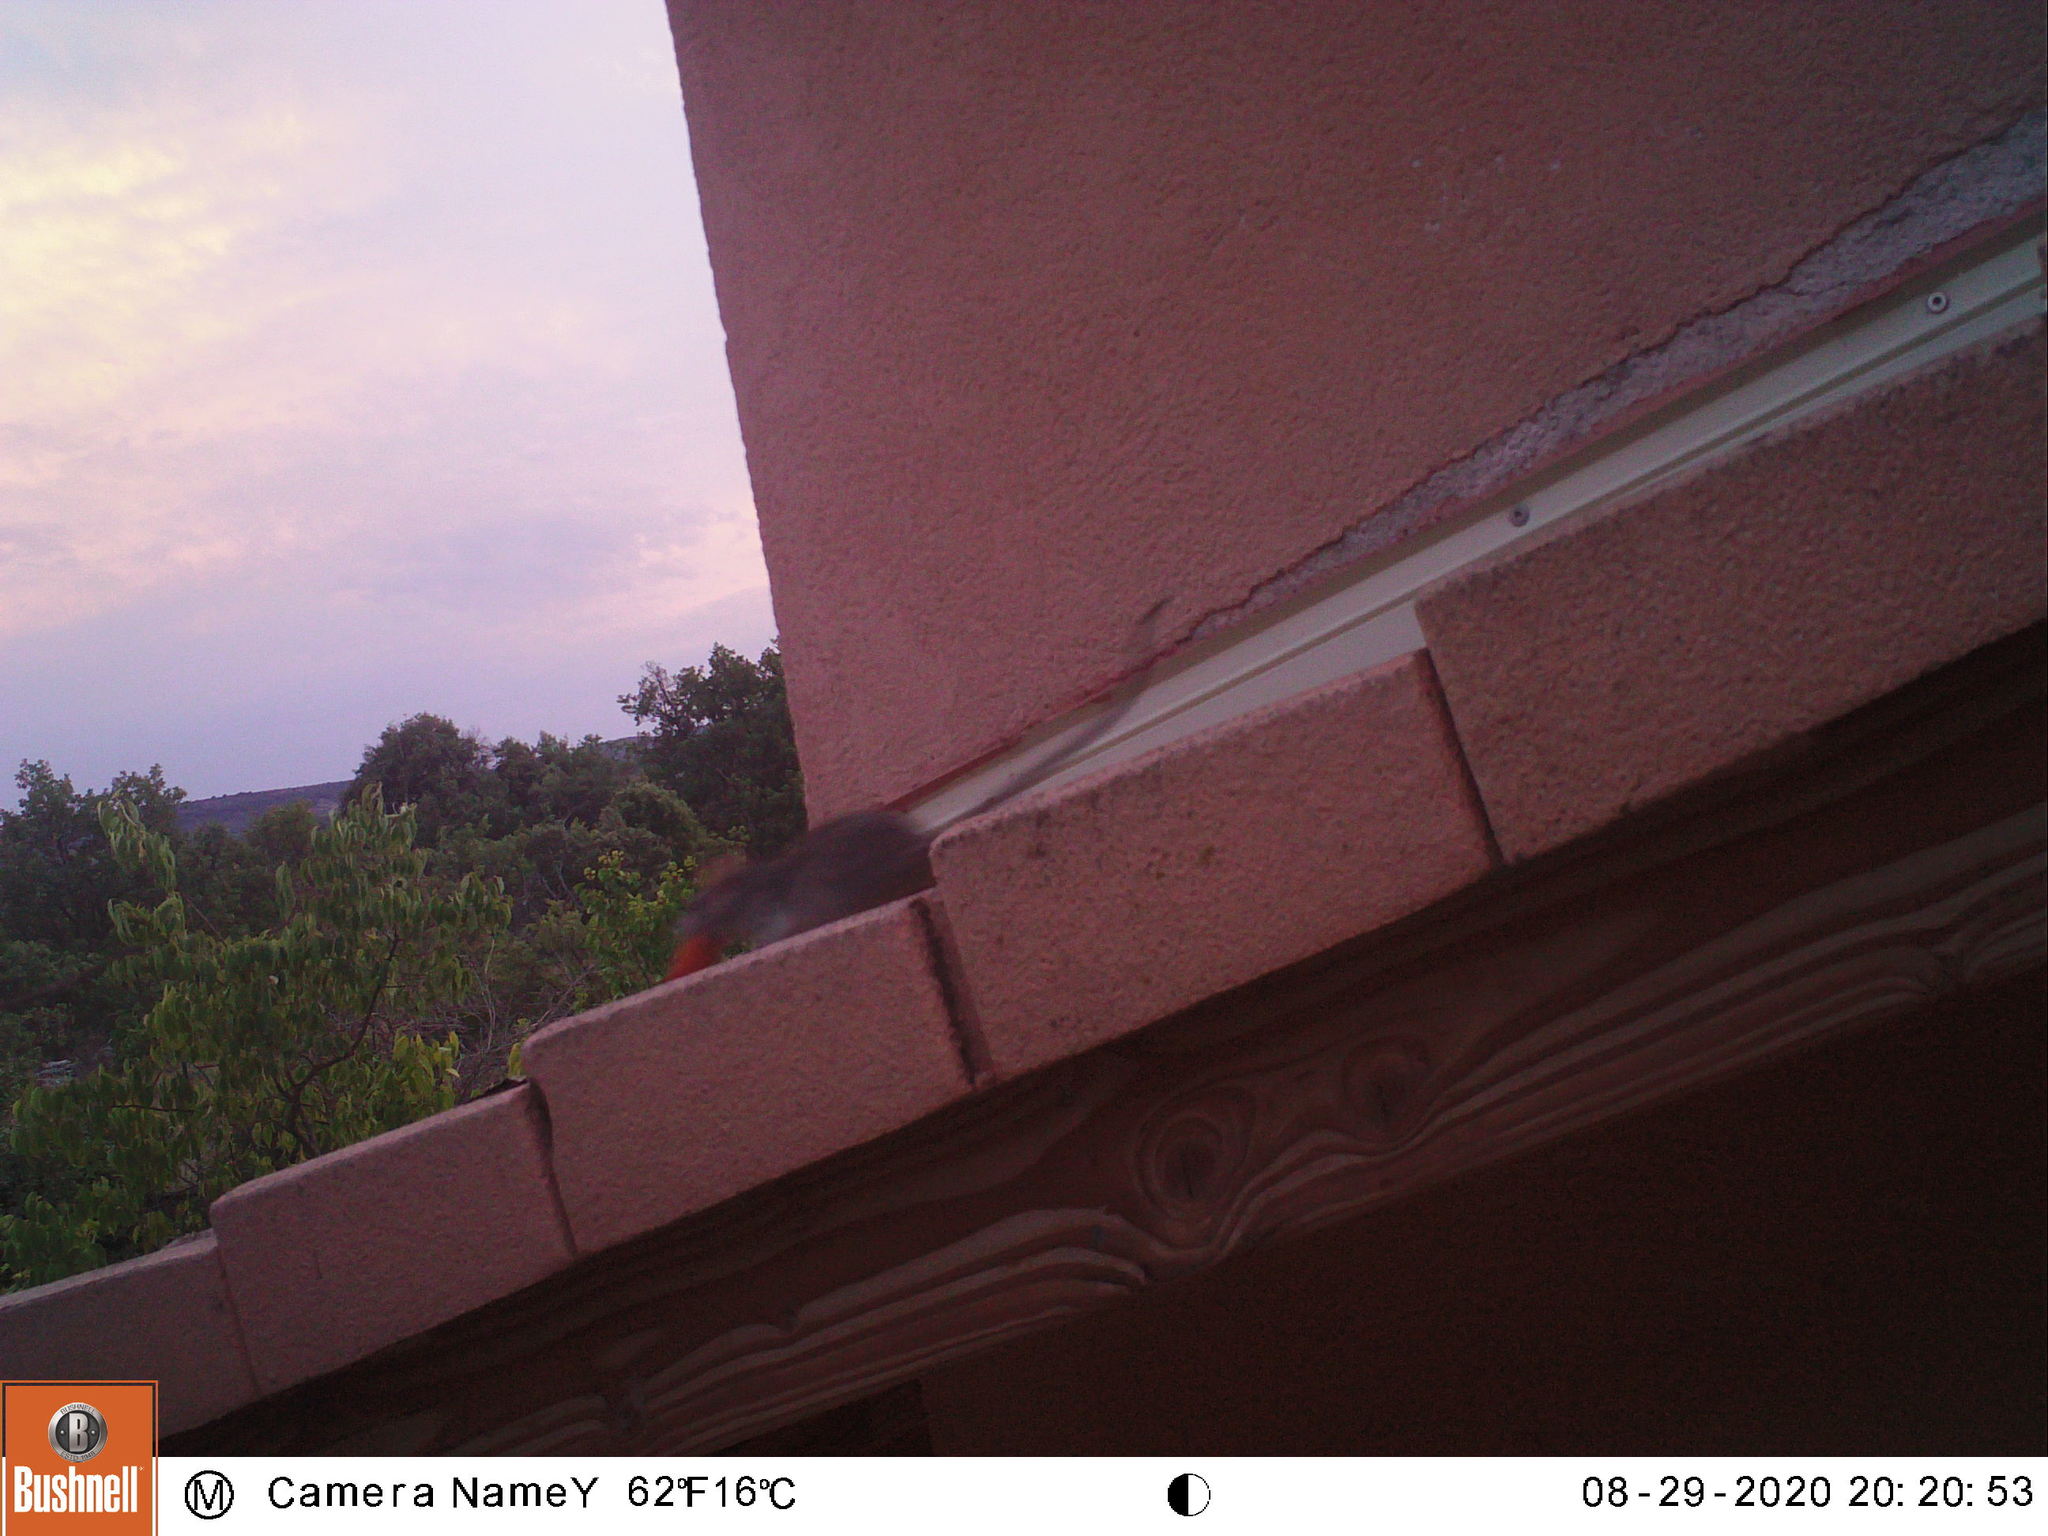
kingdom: Animalia
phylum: Chordata
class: Mammalia
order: Rodentia
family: Muridae
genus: Rattus
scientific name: Rattus rattus
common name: Black rat
